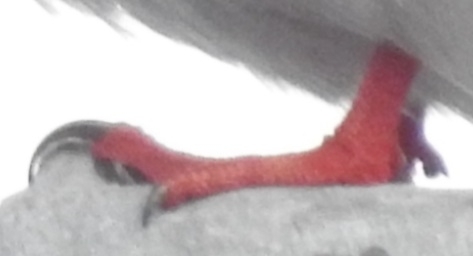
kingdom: Animalia
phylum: Chordata
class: Aves
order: Charadriiformes
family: Laridae
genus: Sterna
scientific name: Sterna paradisaea
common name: Arctic tern
